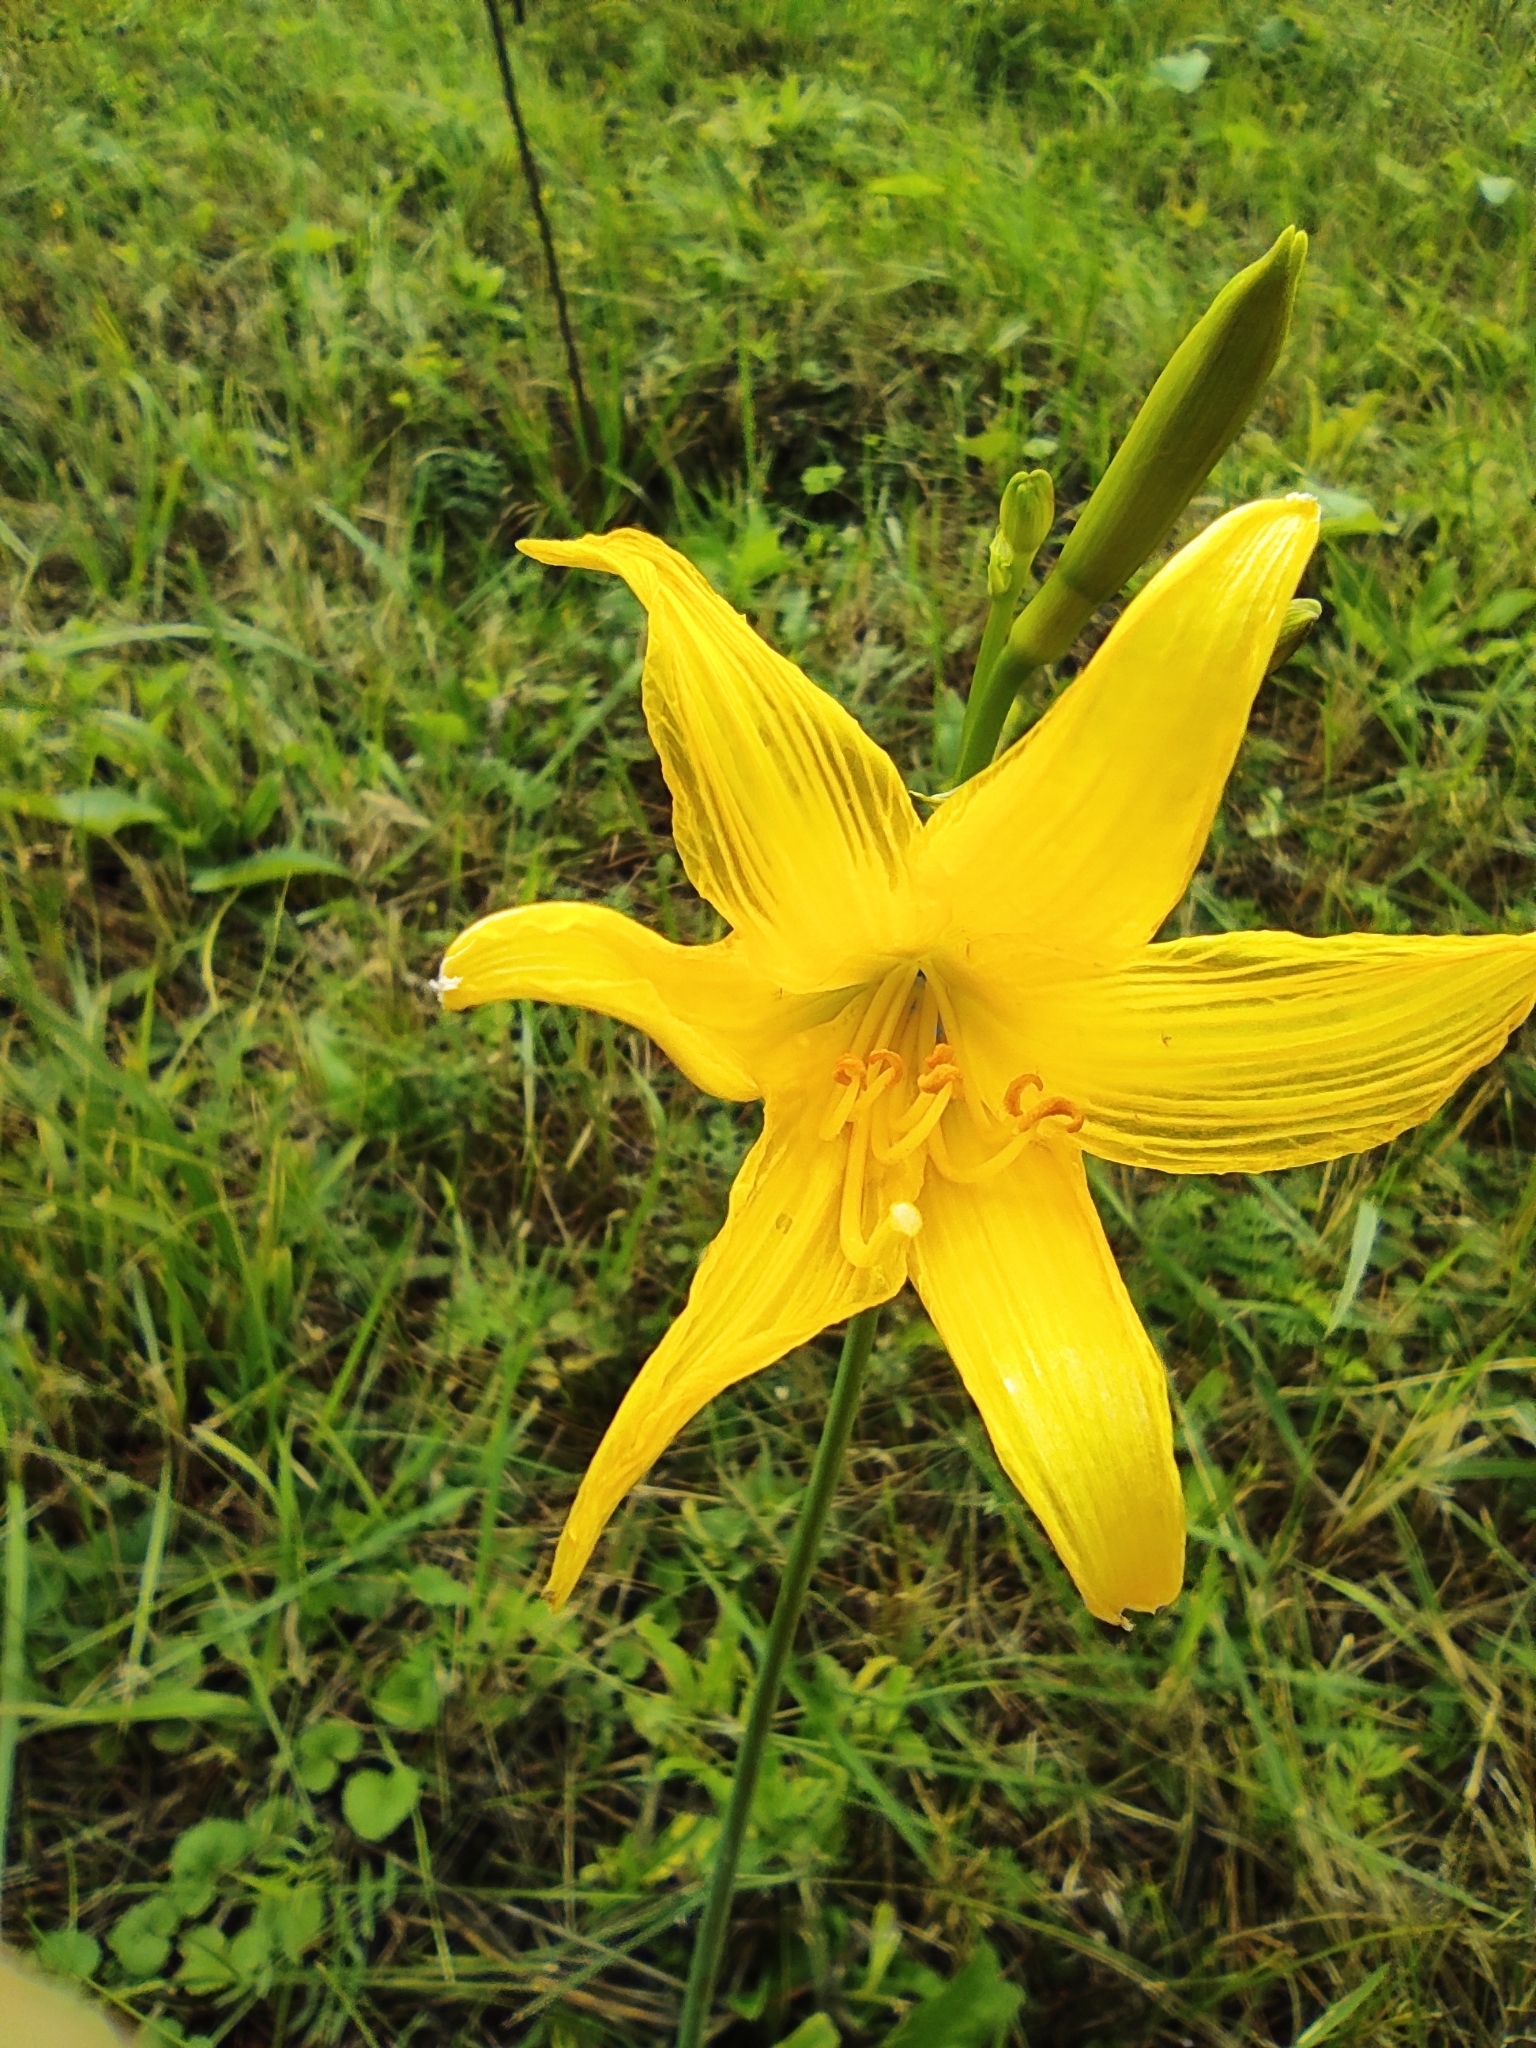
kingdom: Plantae
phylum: Tracheophyta
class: Liliopsida
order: Asparagales
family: Asphodelaceae
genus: Hemerocallis
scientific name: Hemerocallis minor
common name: Small daylily
